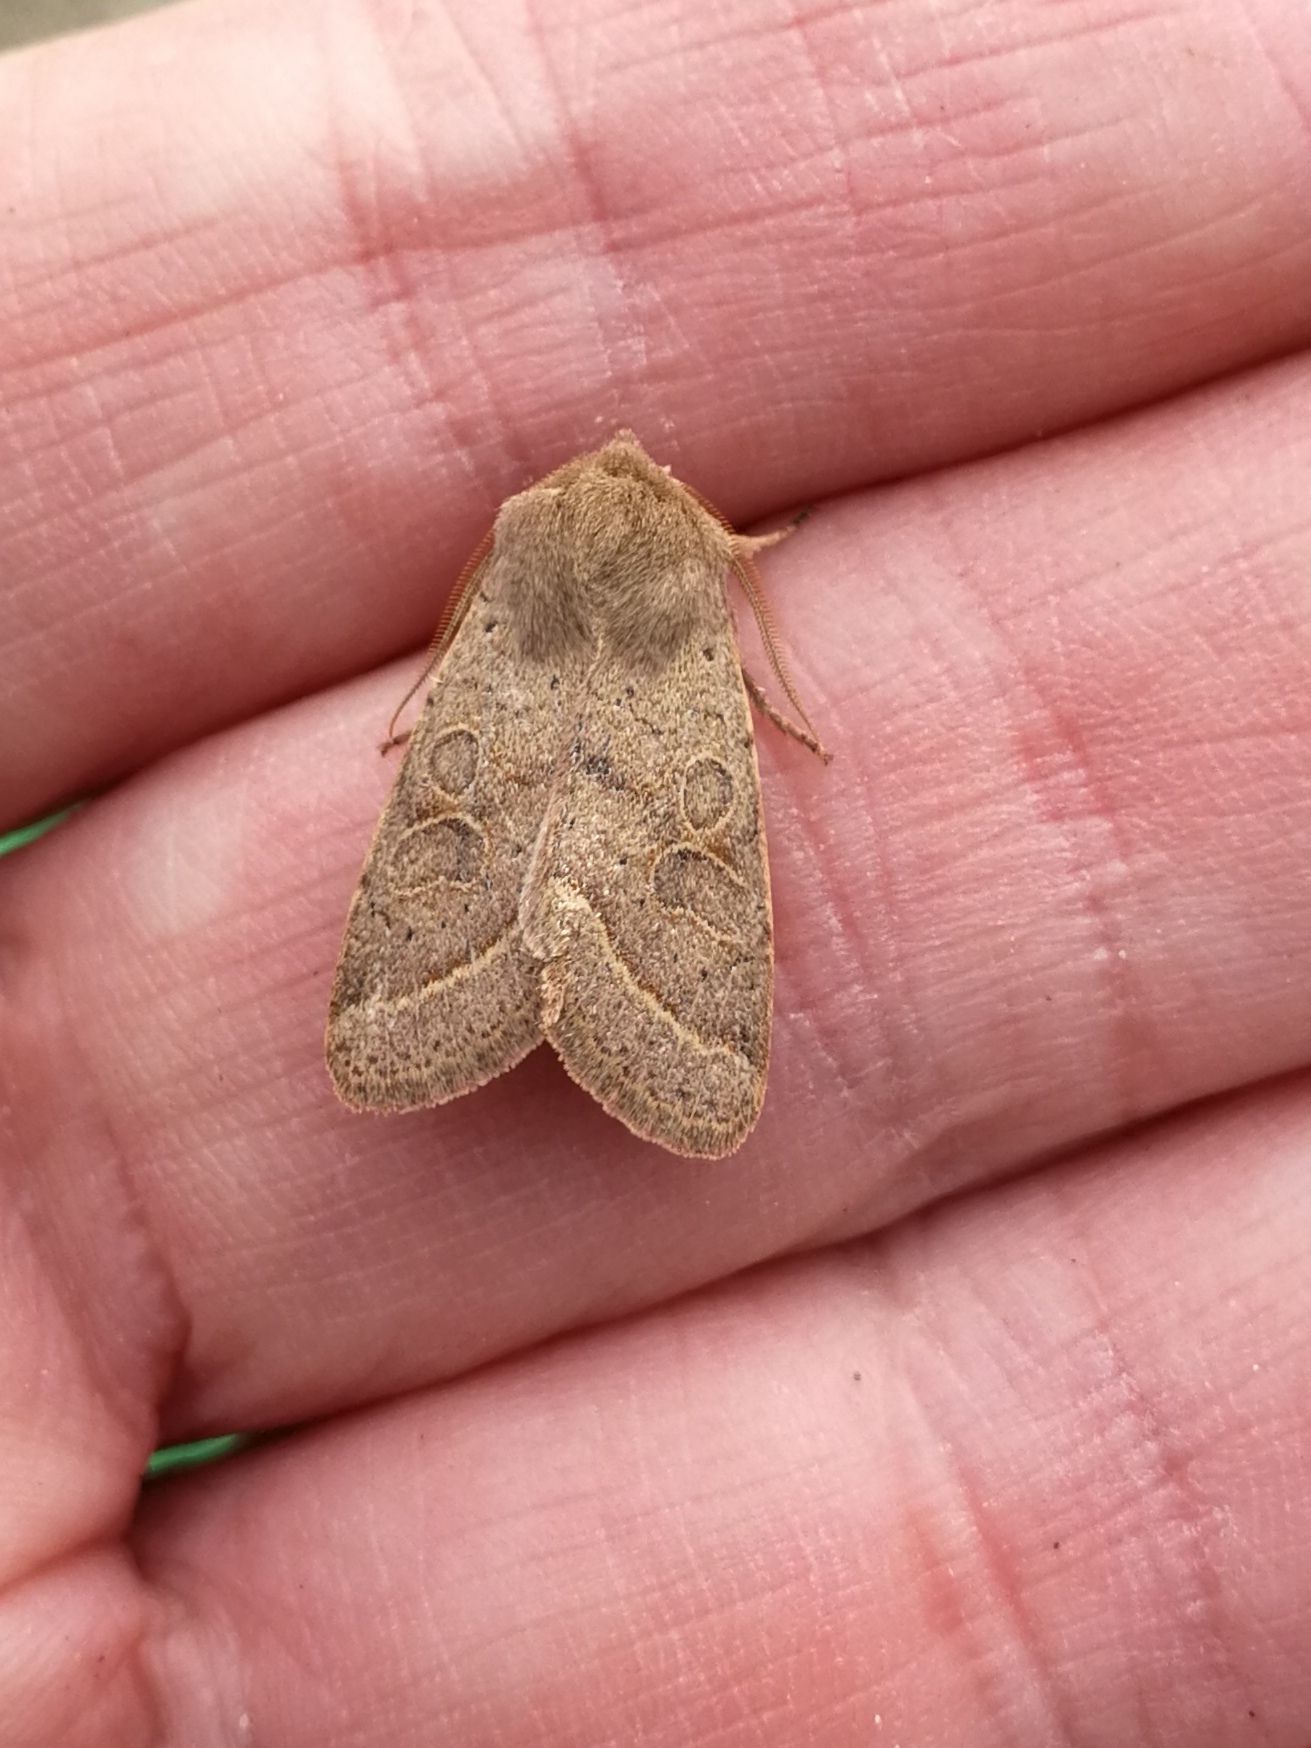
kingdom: Animalia
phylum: Arthropoda
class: Insecta
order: Lepidoptera
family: Noctuidae
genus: Orthosia
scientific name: Orthosia cerasi
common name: Common quaker
